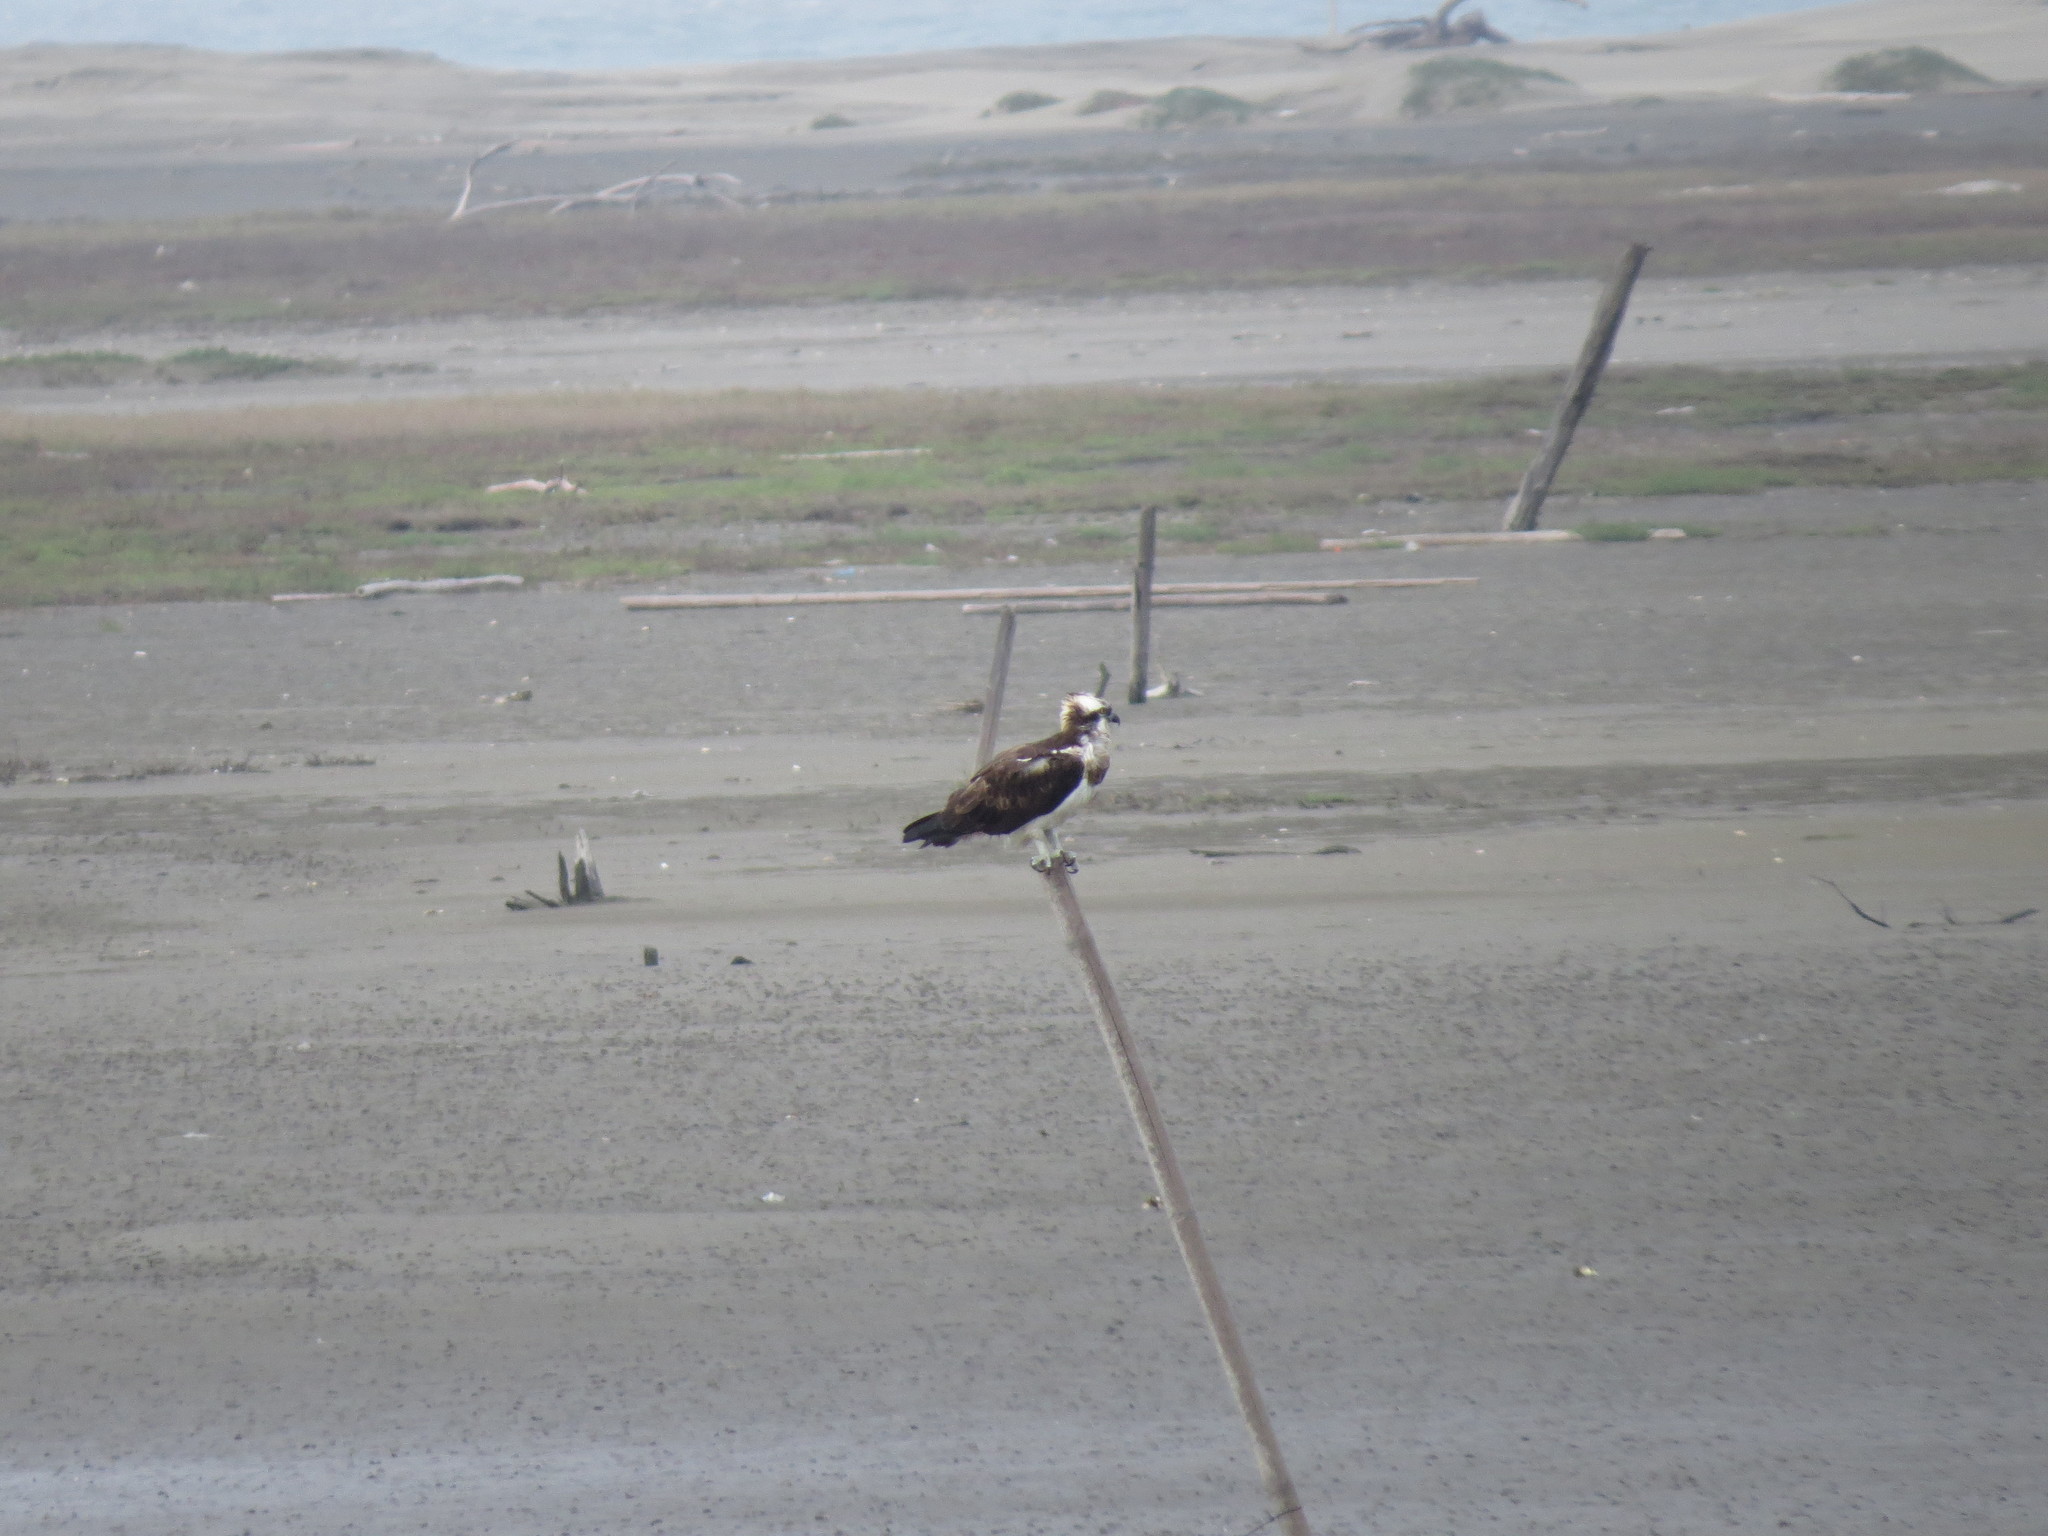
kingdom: Animalia
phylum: Chordata
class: Aves
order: Accipitriformes
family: Pandionidae
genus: Pandion
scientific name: Pandion haliaetus
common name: Osprey
